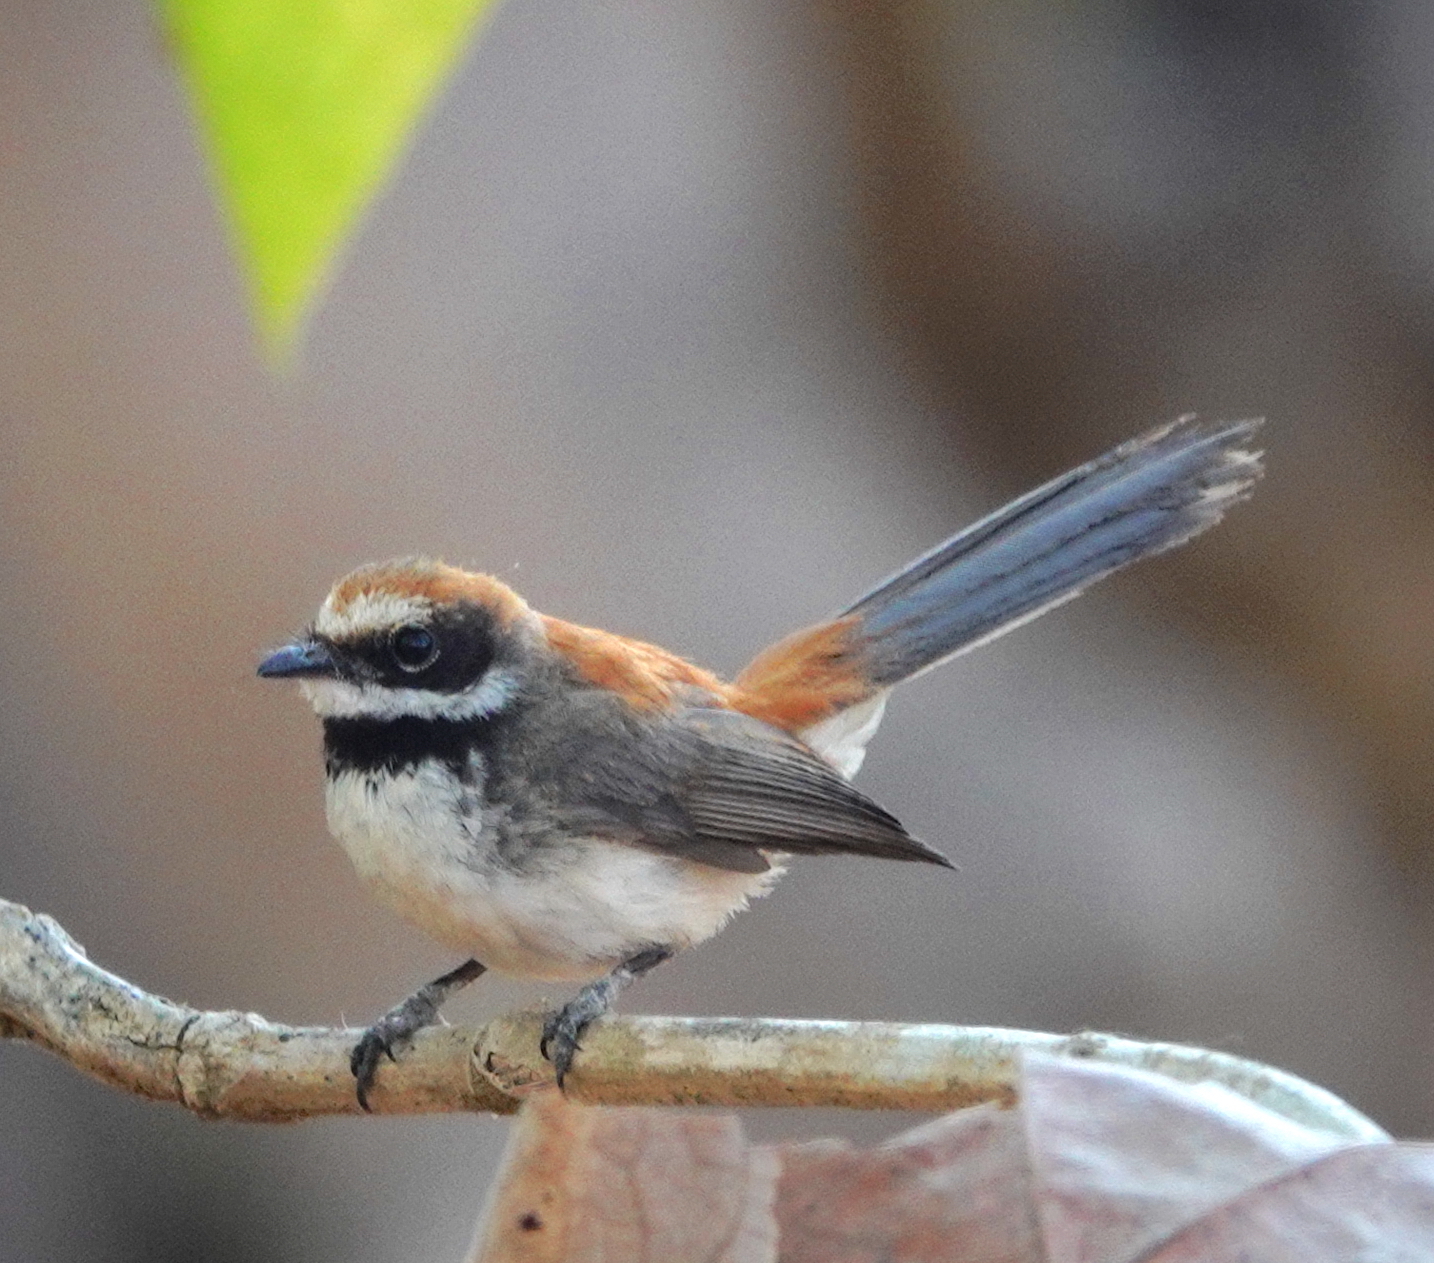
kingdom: Animalia
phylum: Chordata
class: Aves
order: Passeriformes
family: Rhipiduridae
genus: Rhipidura
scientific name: Rhipidura
